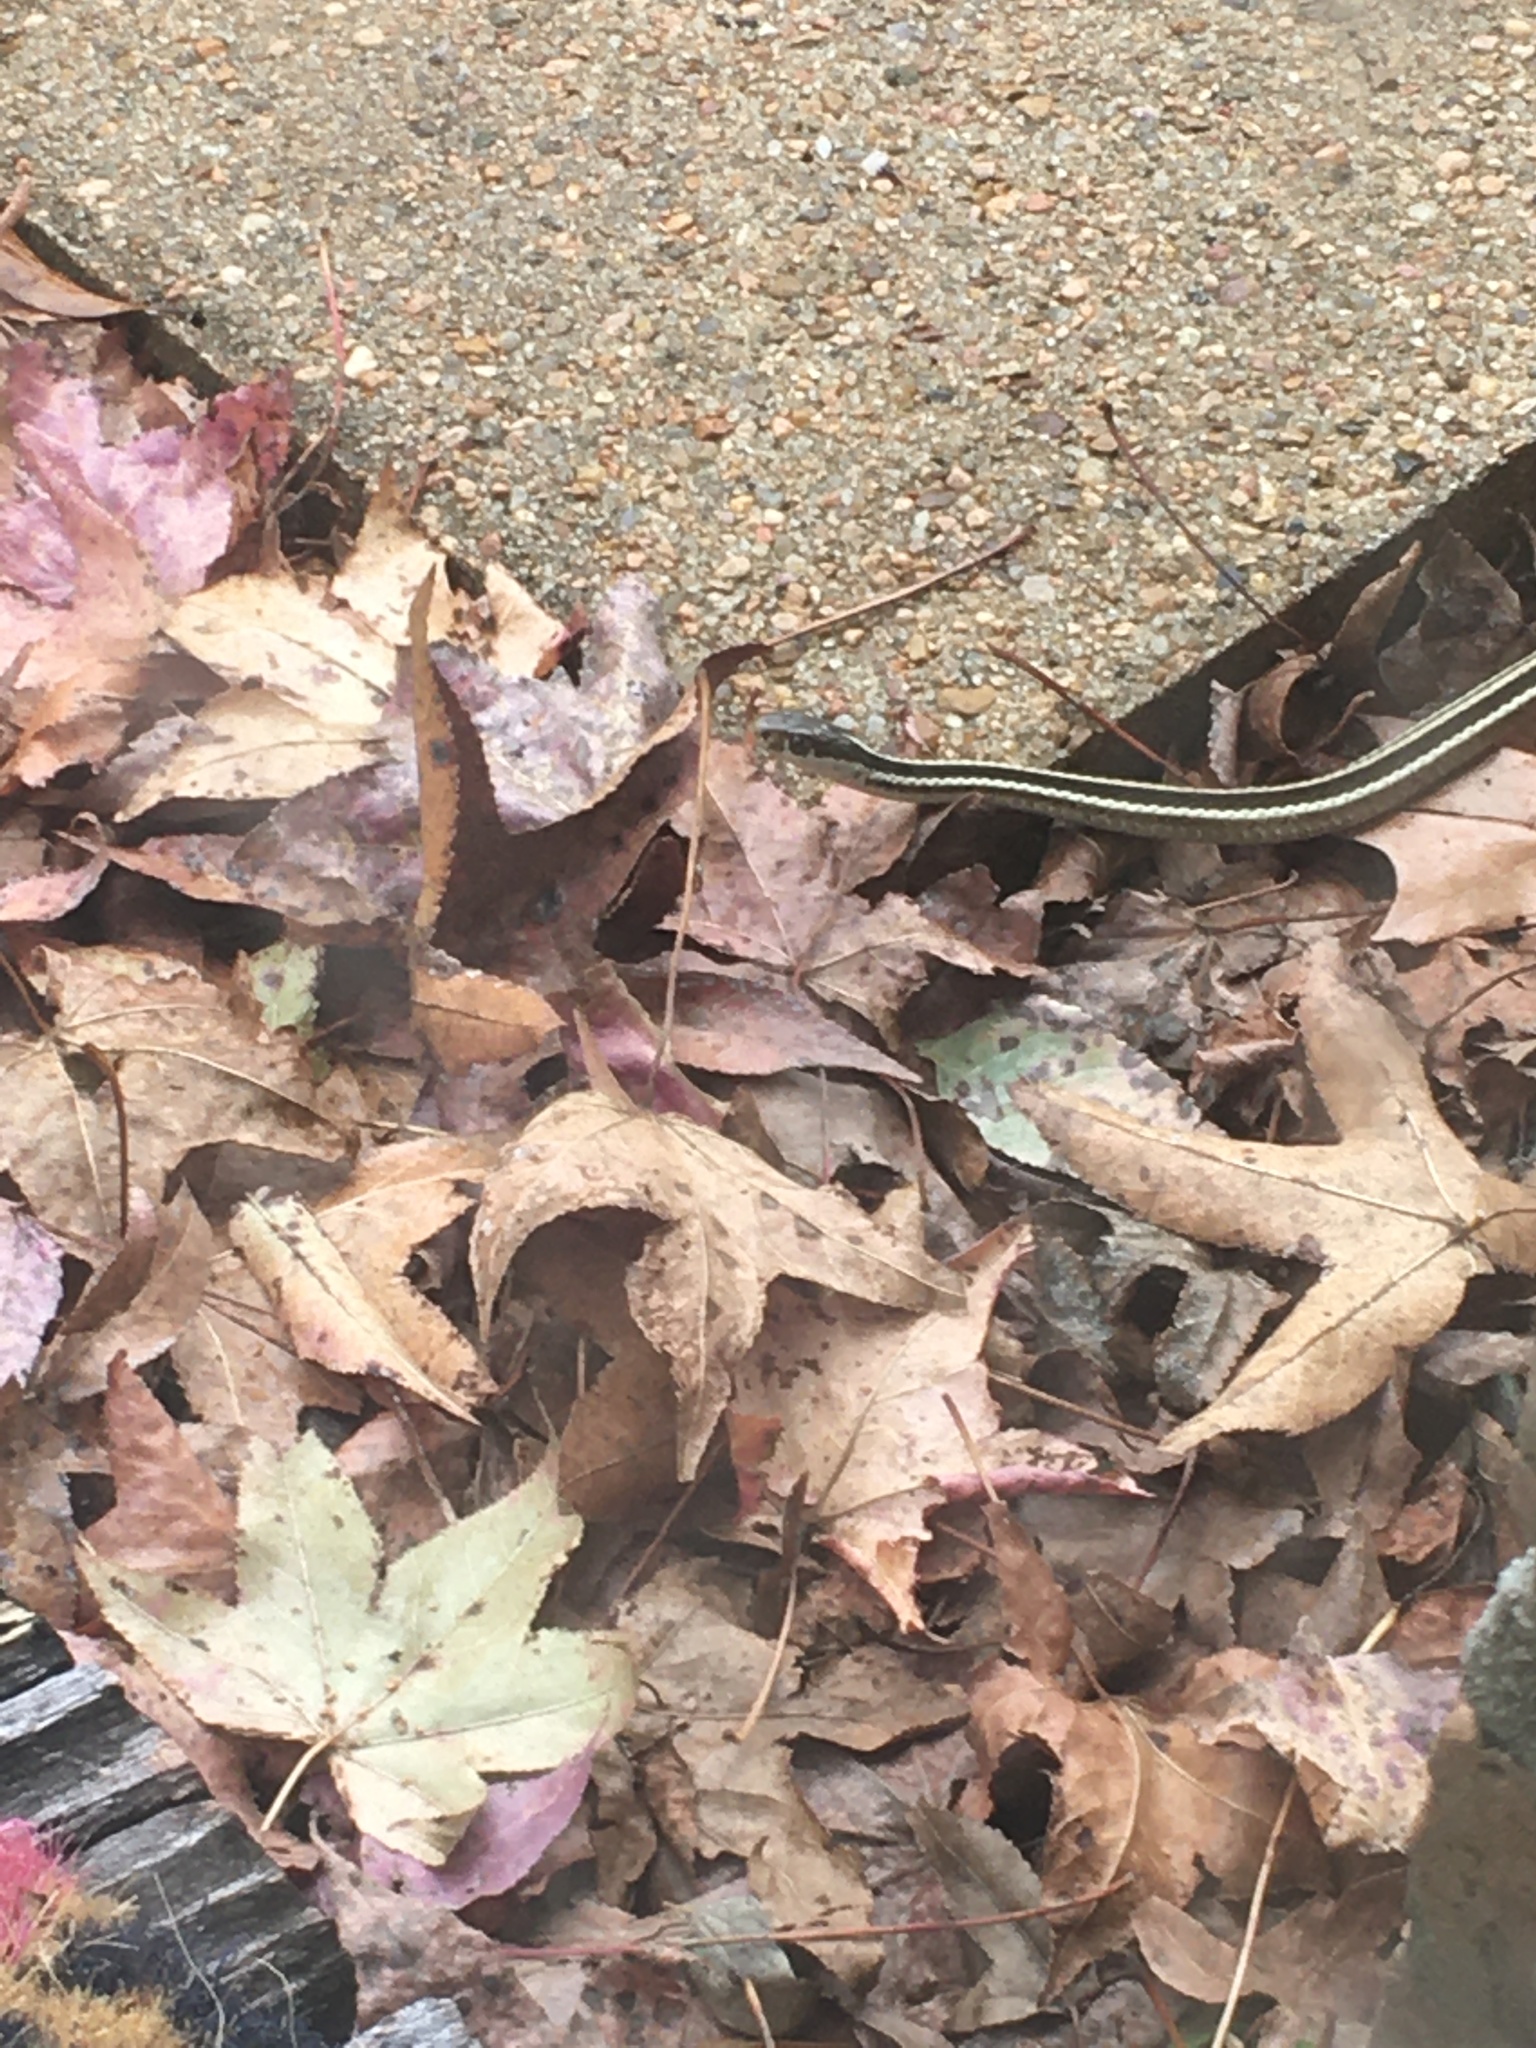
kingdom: Animalia
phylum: Chordata
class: Squamata
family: Colubridae
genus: Thamnophis
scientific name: Thamnophis proximus
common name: Western ribbon snake
